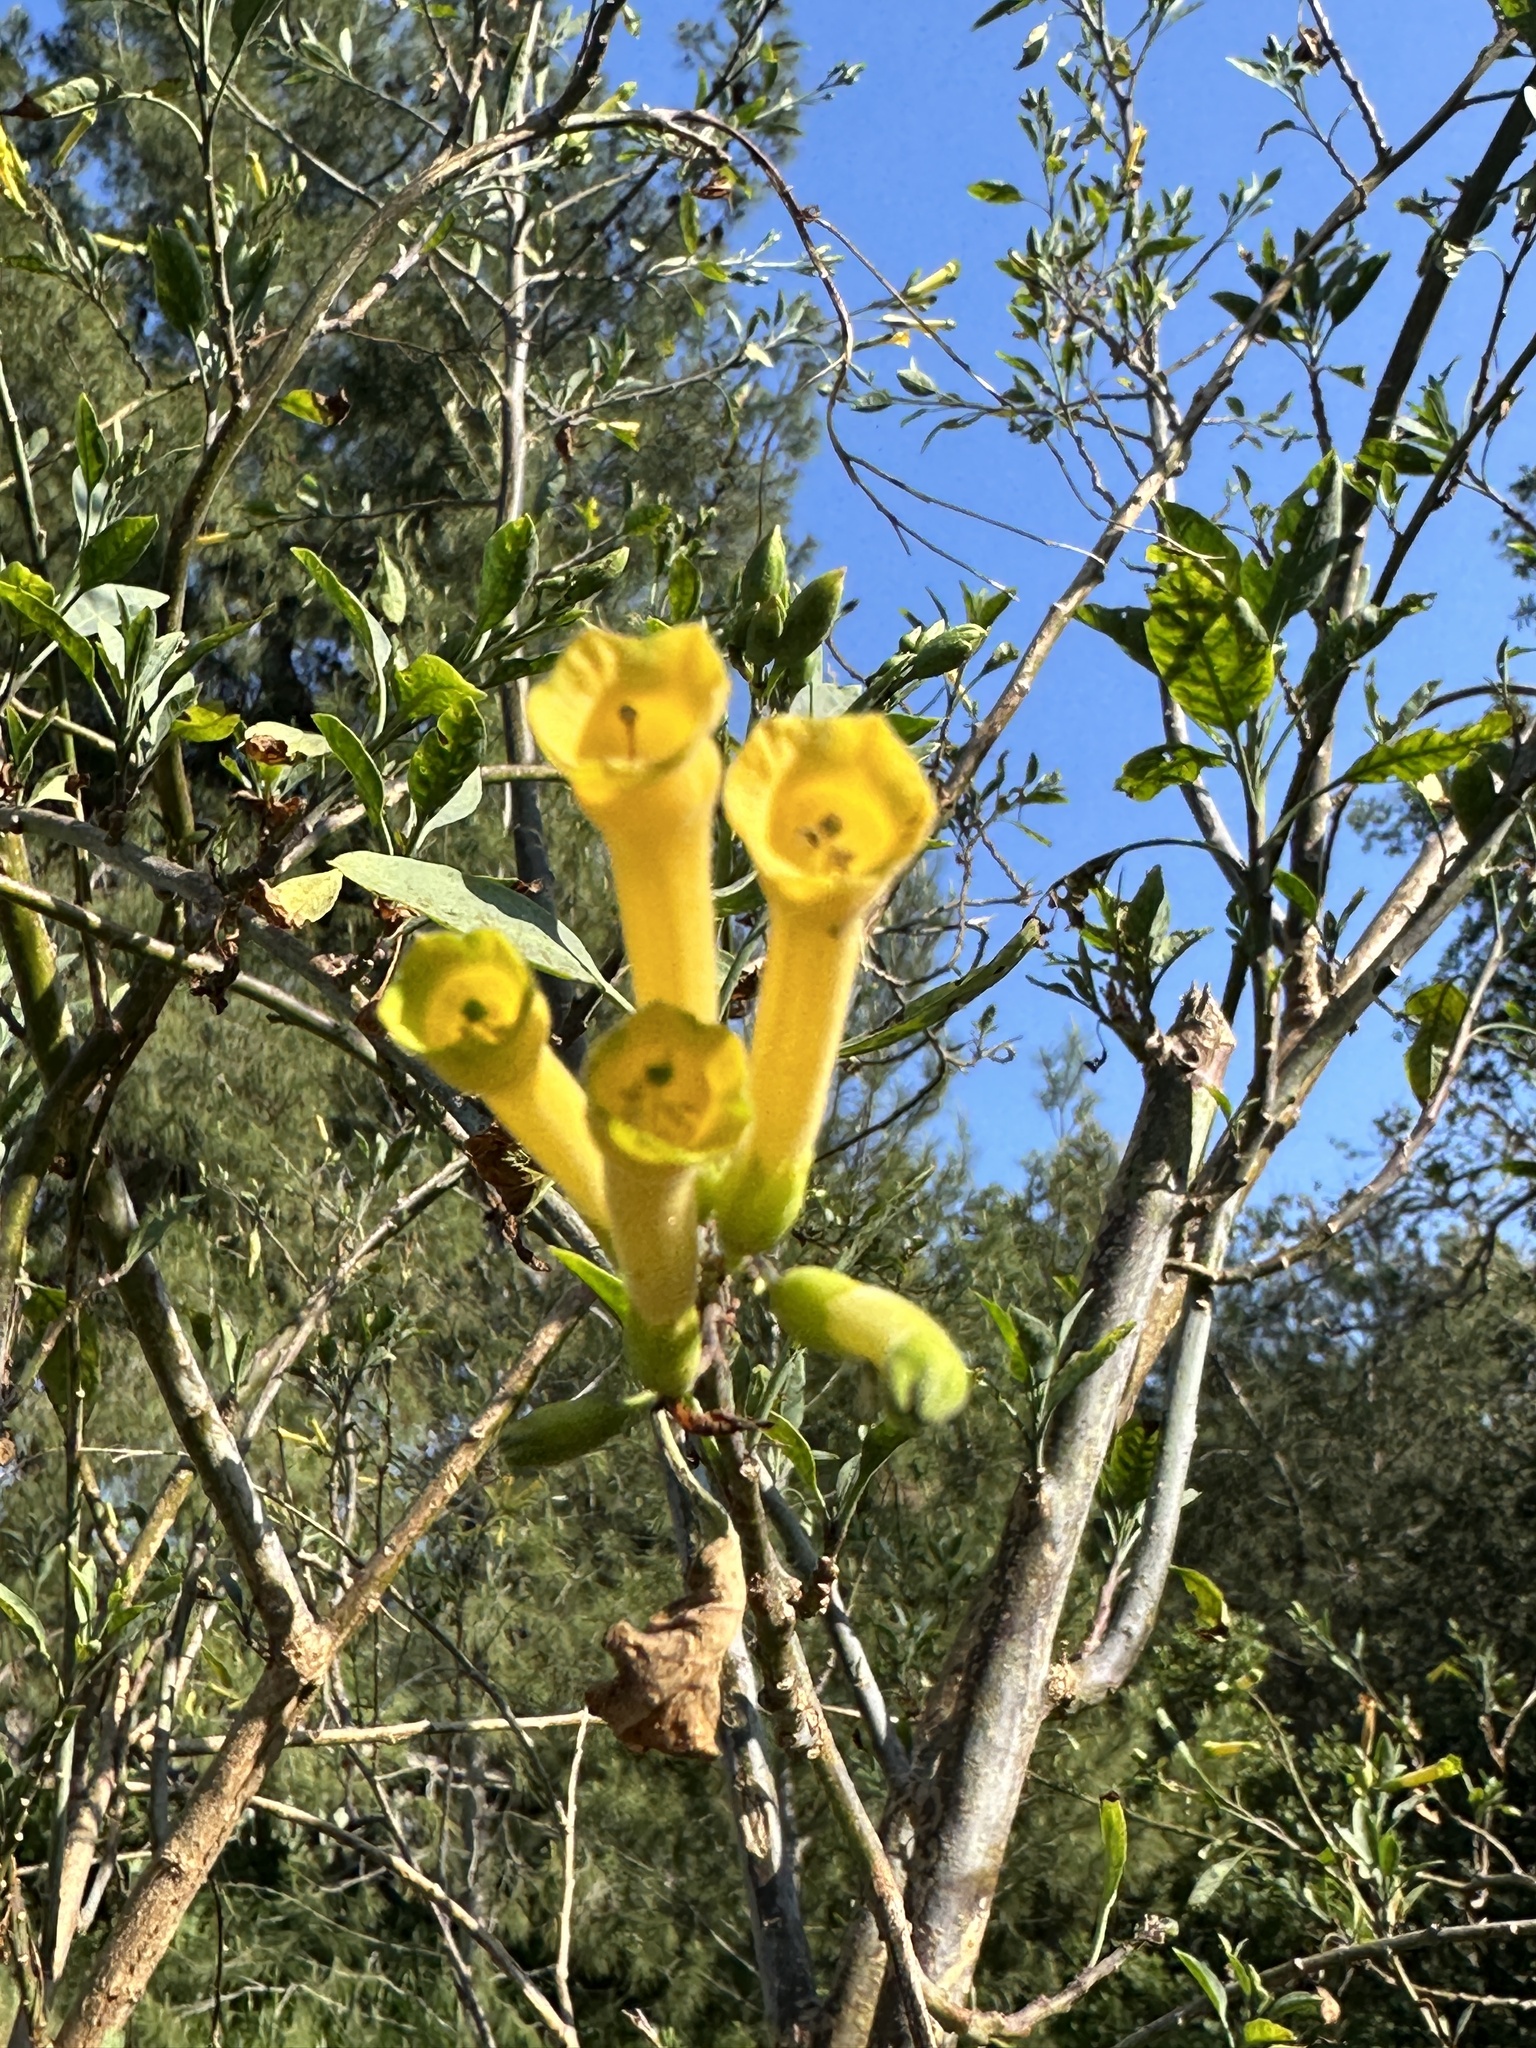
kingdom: Plantae
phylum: Tracheophyta
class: Magnoliopsida
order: Solanales
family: Solanaceae
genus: Nicotiana
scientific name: Nicotiana glauca
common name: Tree tobacco
